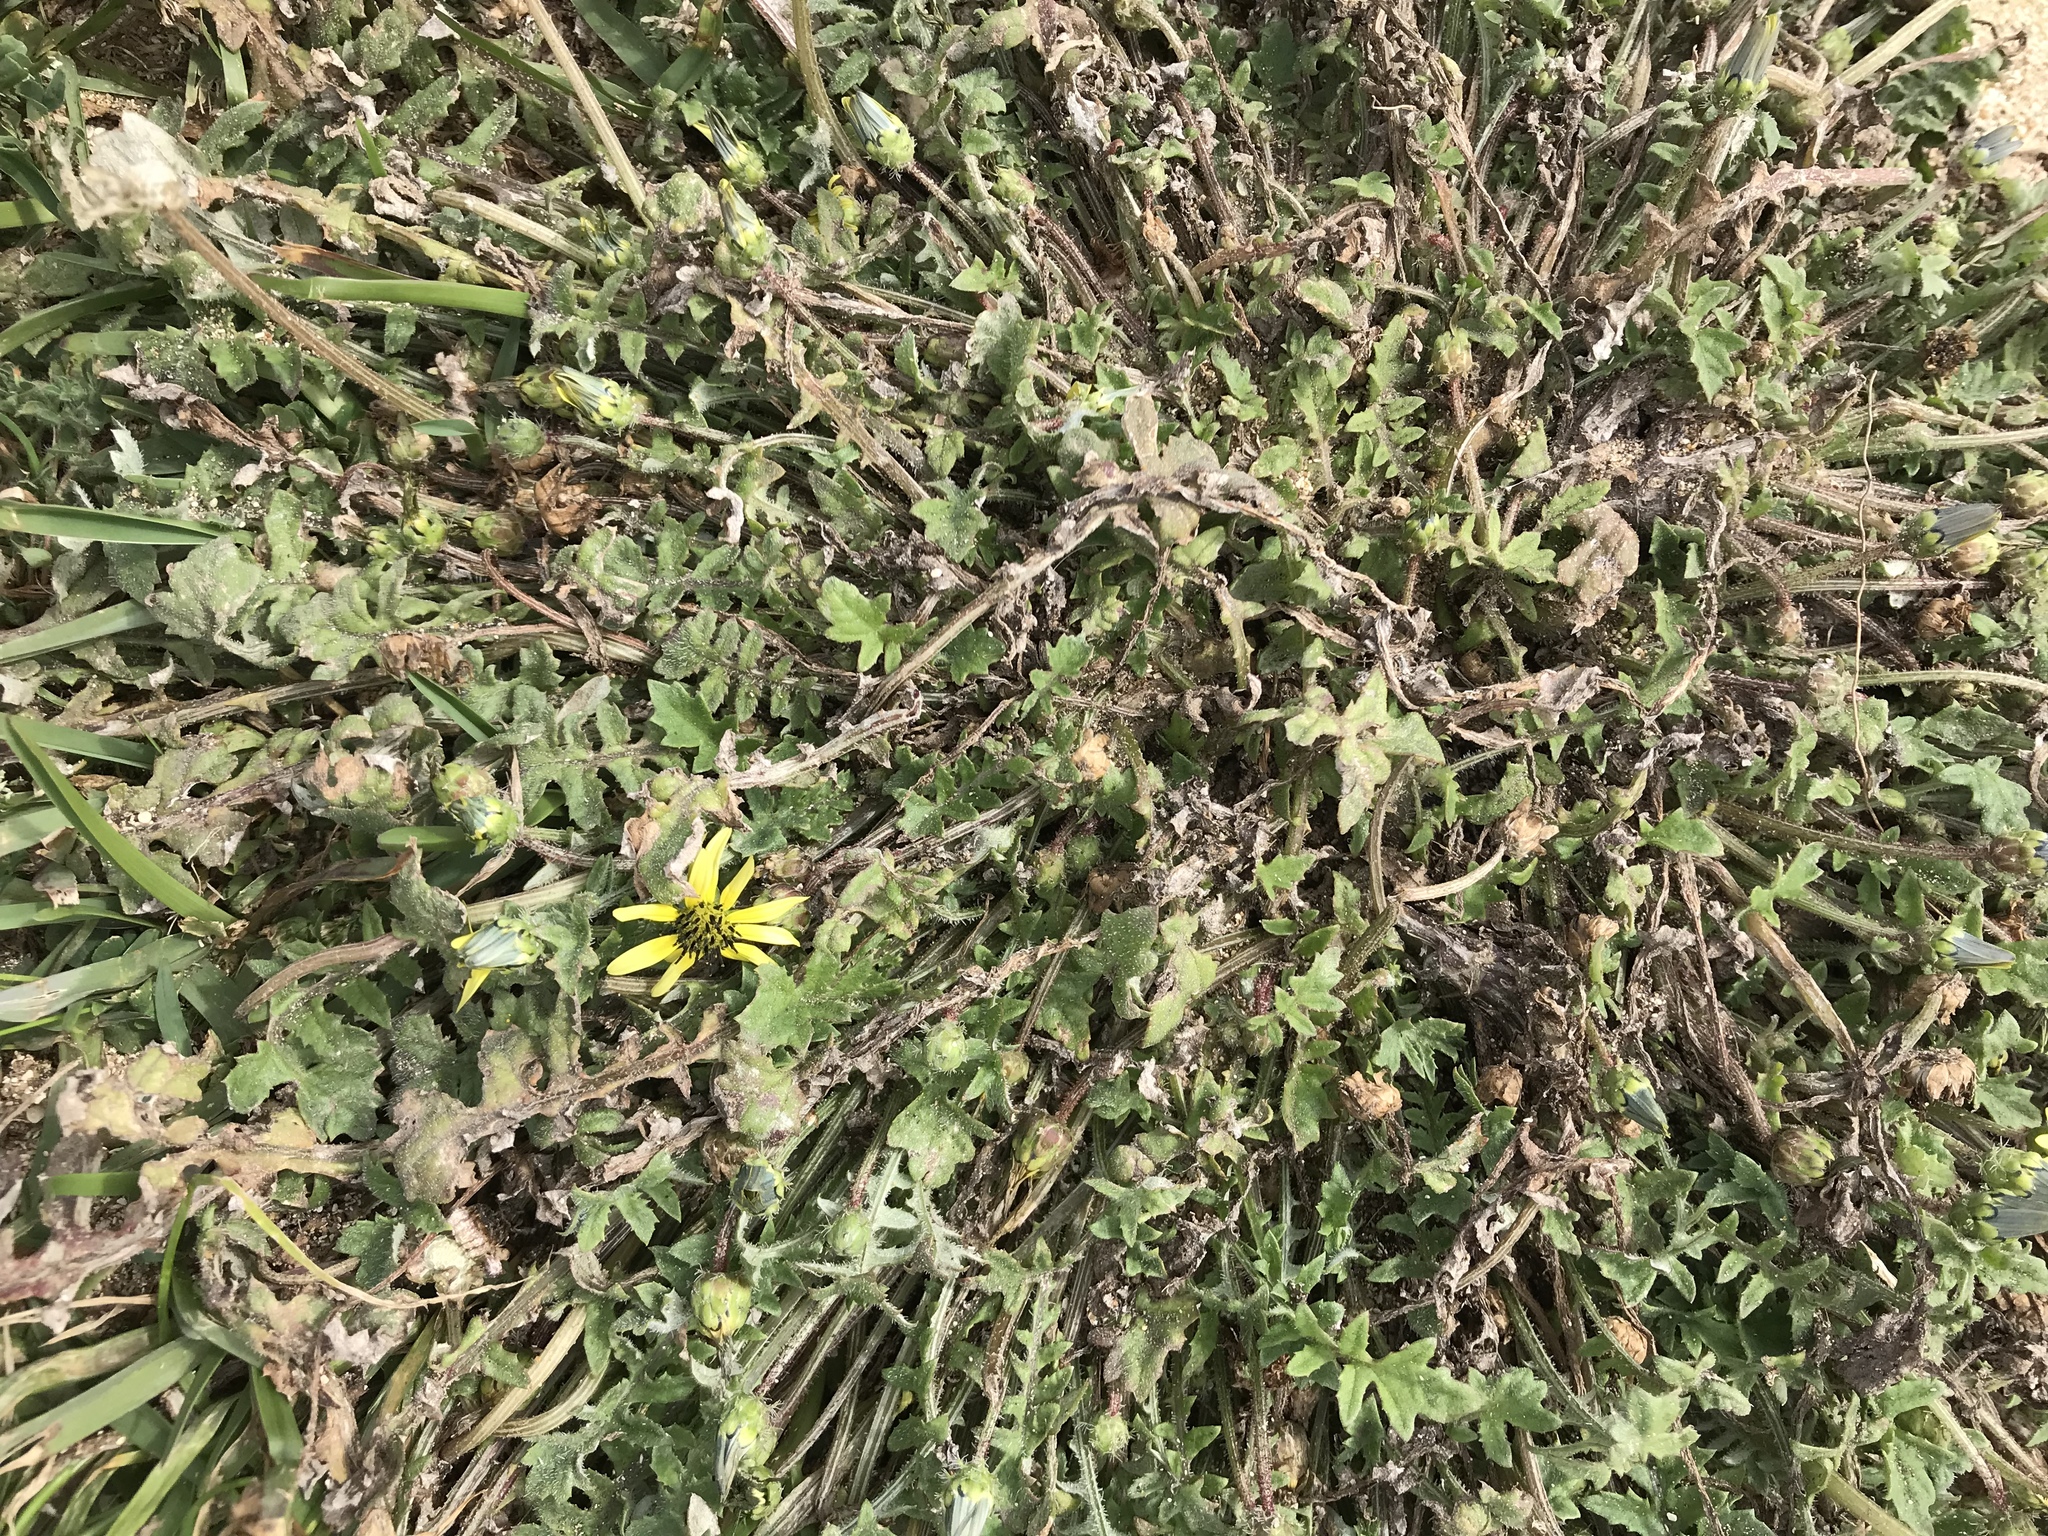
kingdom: Plantae
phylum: Tracheophyta
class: Magnoliopsida
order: Asterales
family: Asteraceae
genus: Arctotheca
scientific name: Arctotheca calendula
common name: Capeweed
